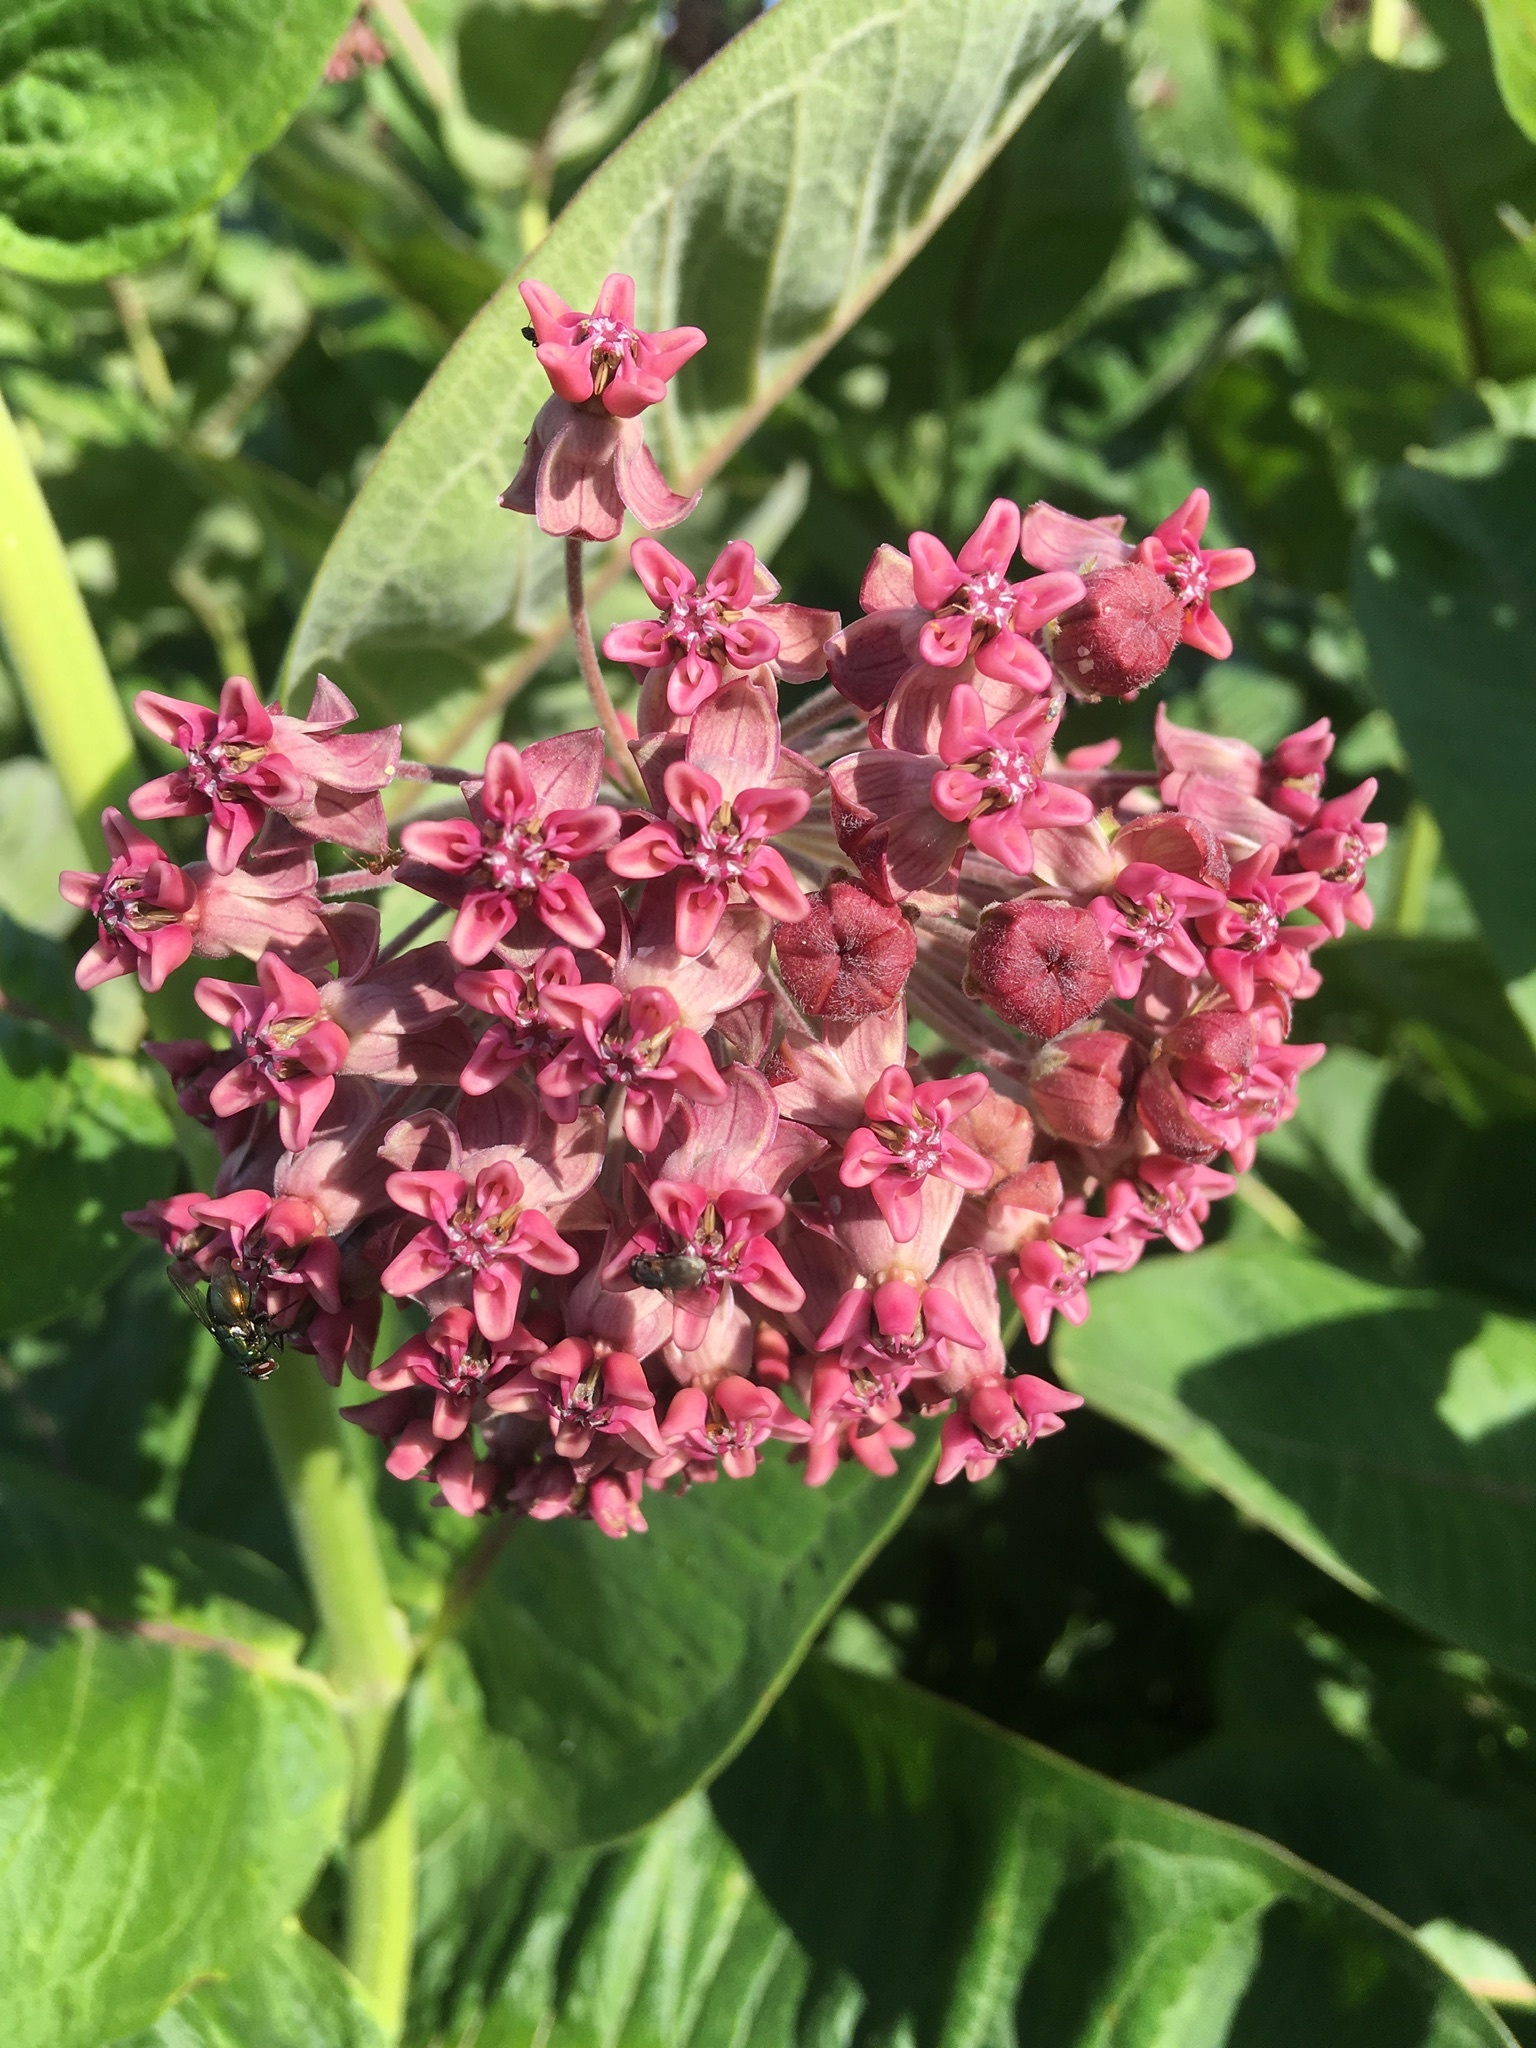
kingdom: Plantae
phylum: Tracheophyta
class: Magnoliopsida
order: Gentianales
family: Apocynaceae
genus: Asclepias
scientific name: Asclepias syriaca
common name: Common milkweed
